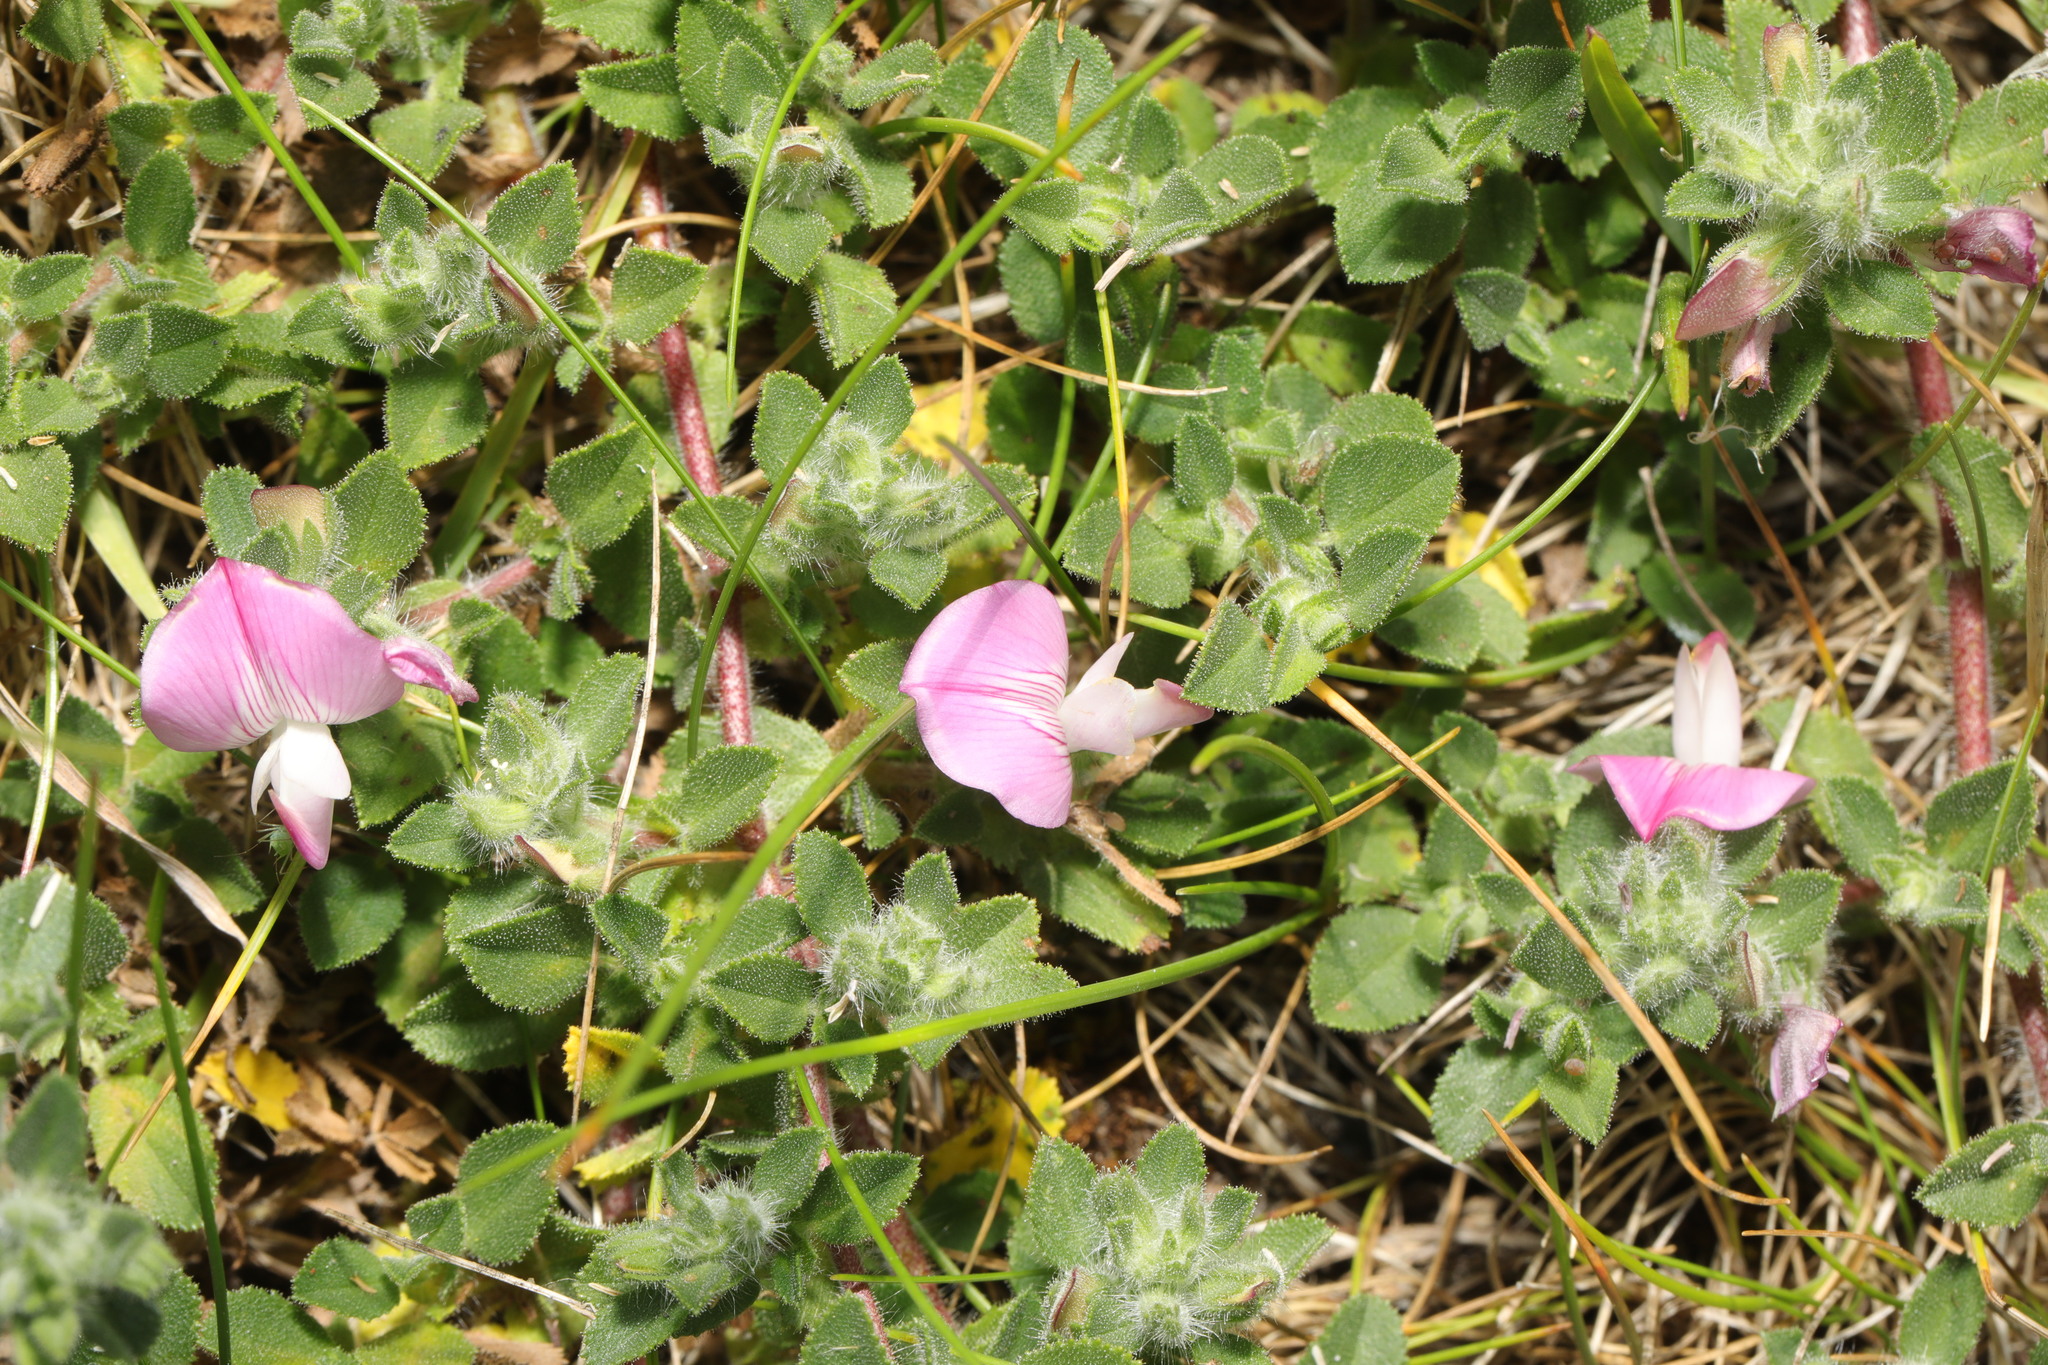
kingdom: Plantae
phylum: Tracheophyta
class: Magnoliopsida
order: Fabales
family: Fabaceae
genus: Ononis
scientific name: Ononis spinosa
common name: Spiny restharrow
